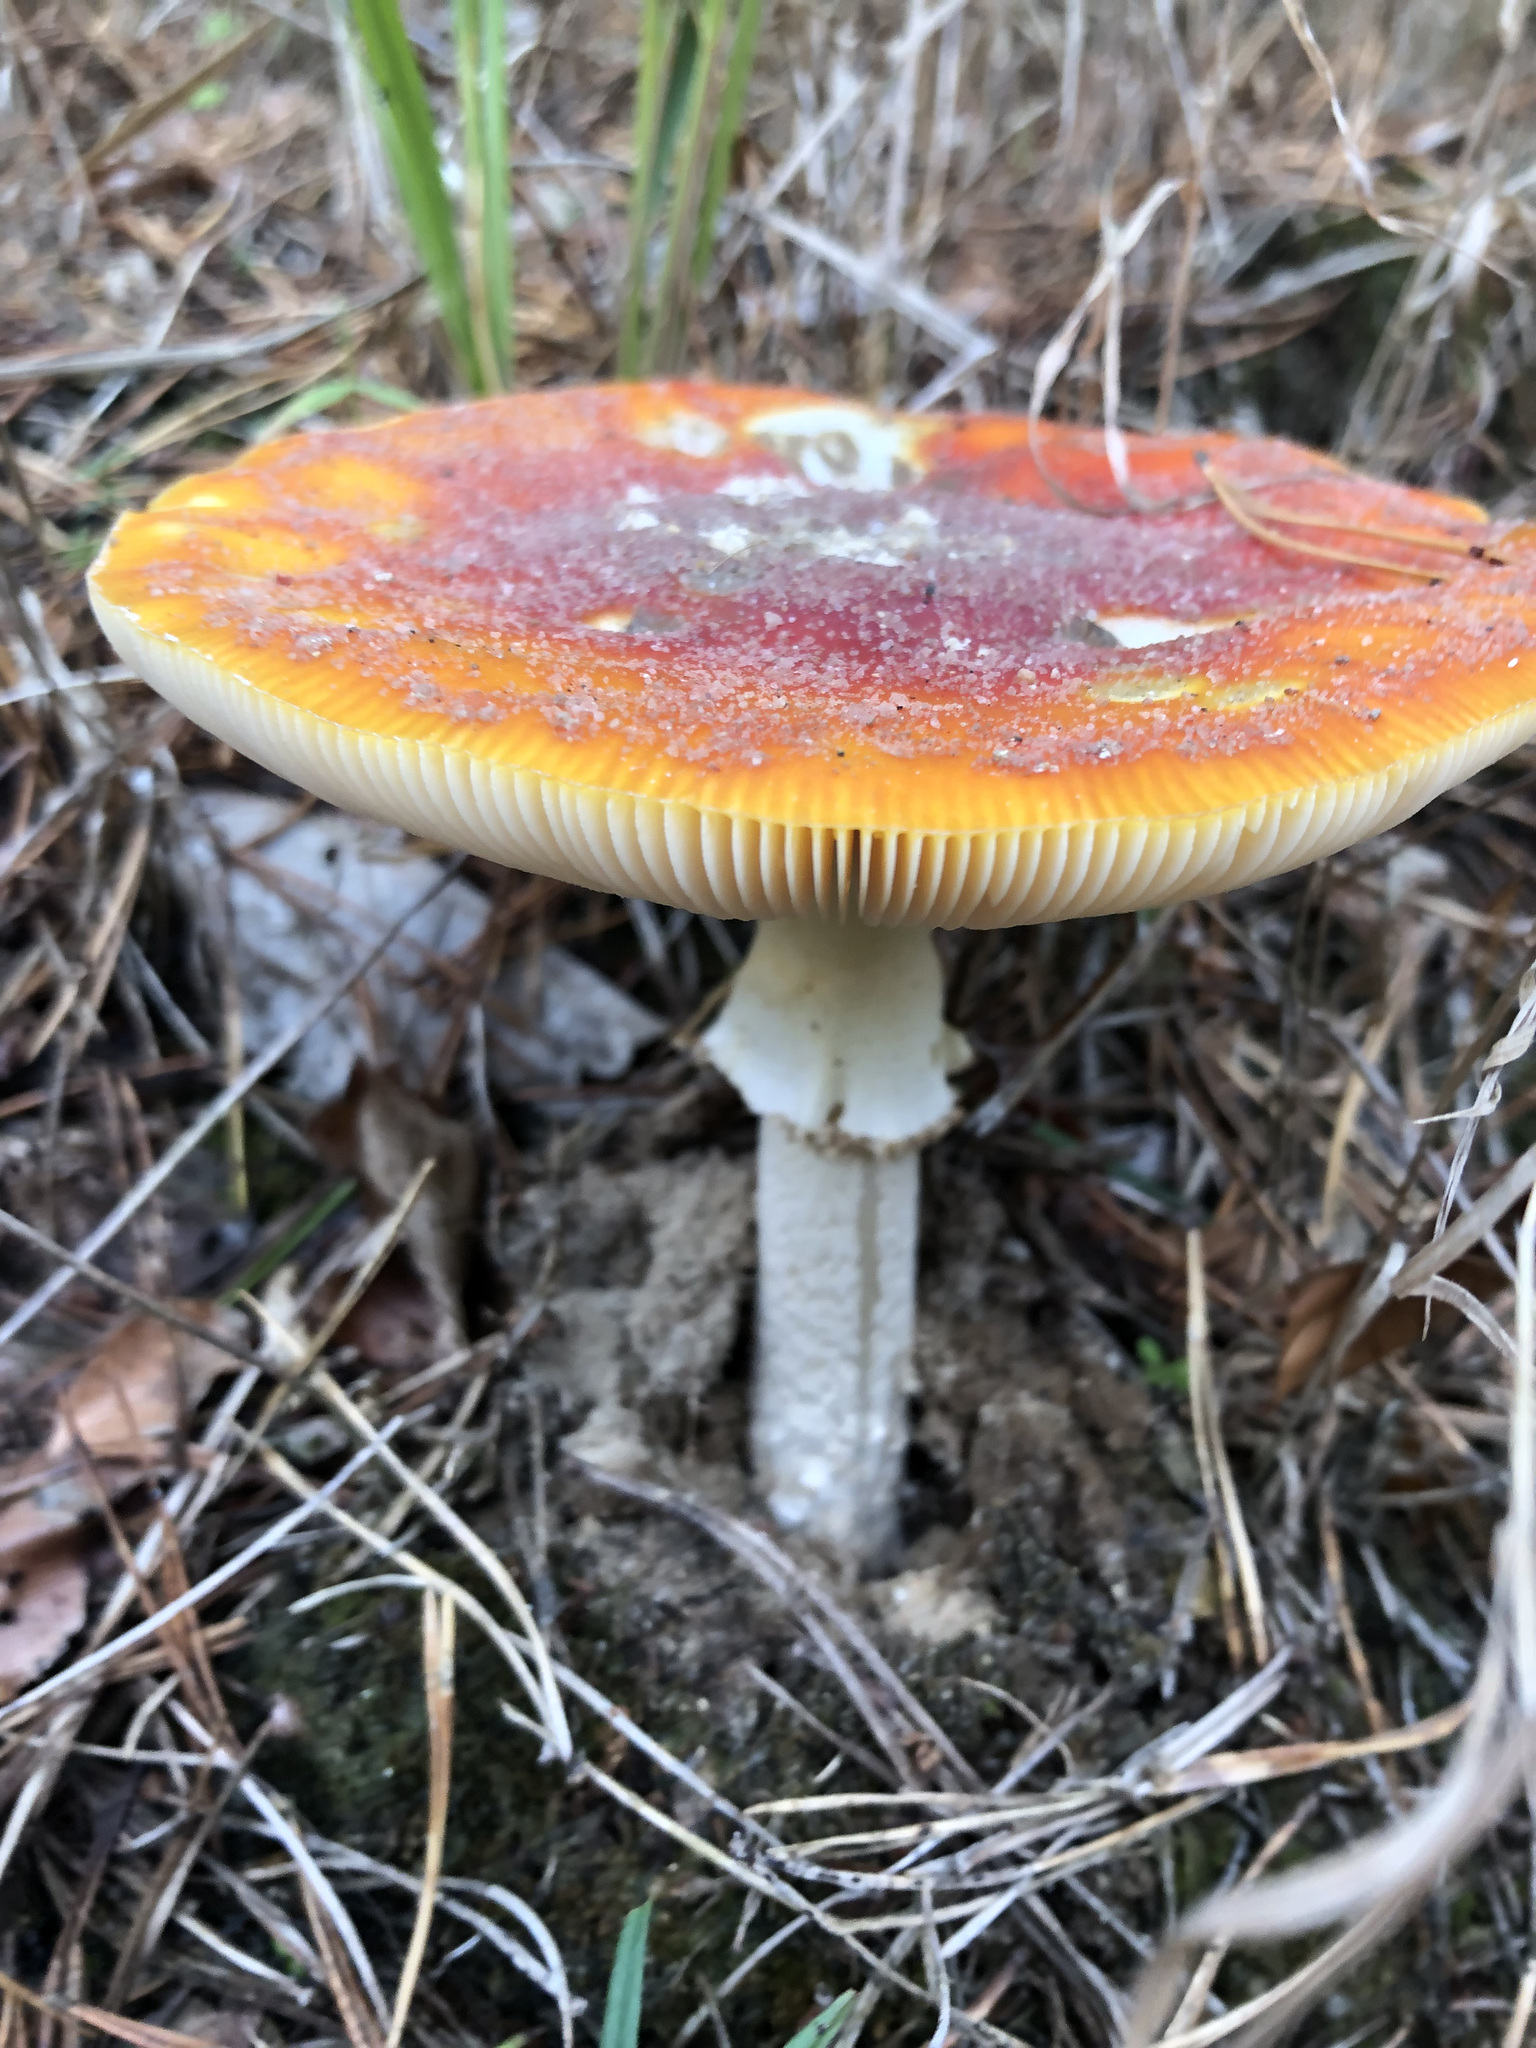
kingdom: Fungi
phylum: Basidiomycota
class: Agaricomycetes
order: Agaricales
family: Amanitaceae
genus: Amanita
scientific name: Amanita muscaria
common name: Fly agaric
